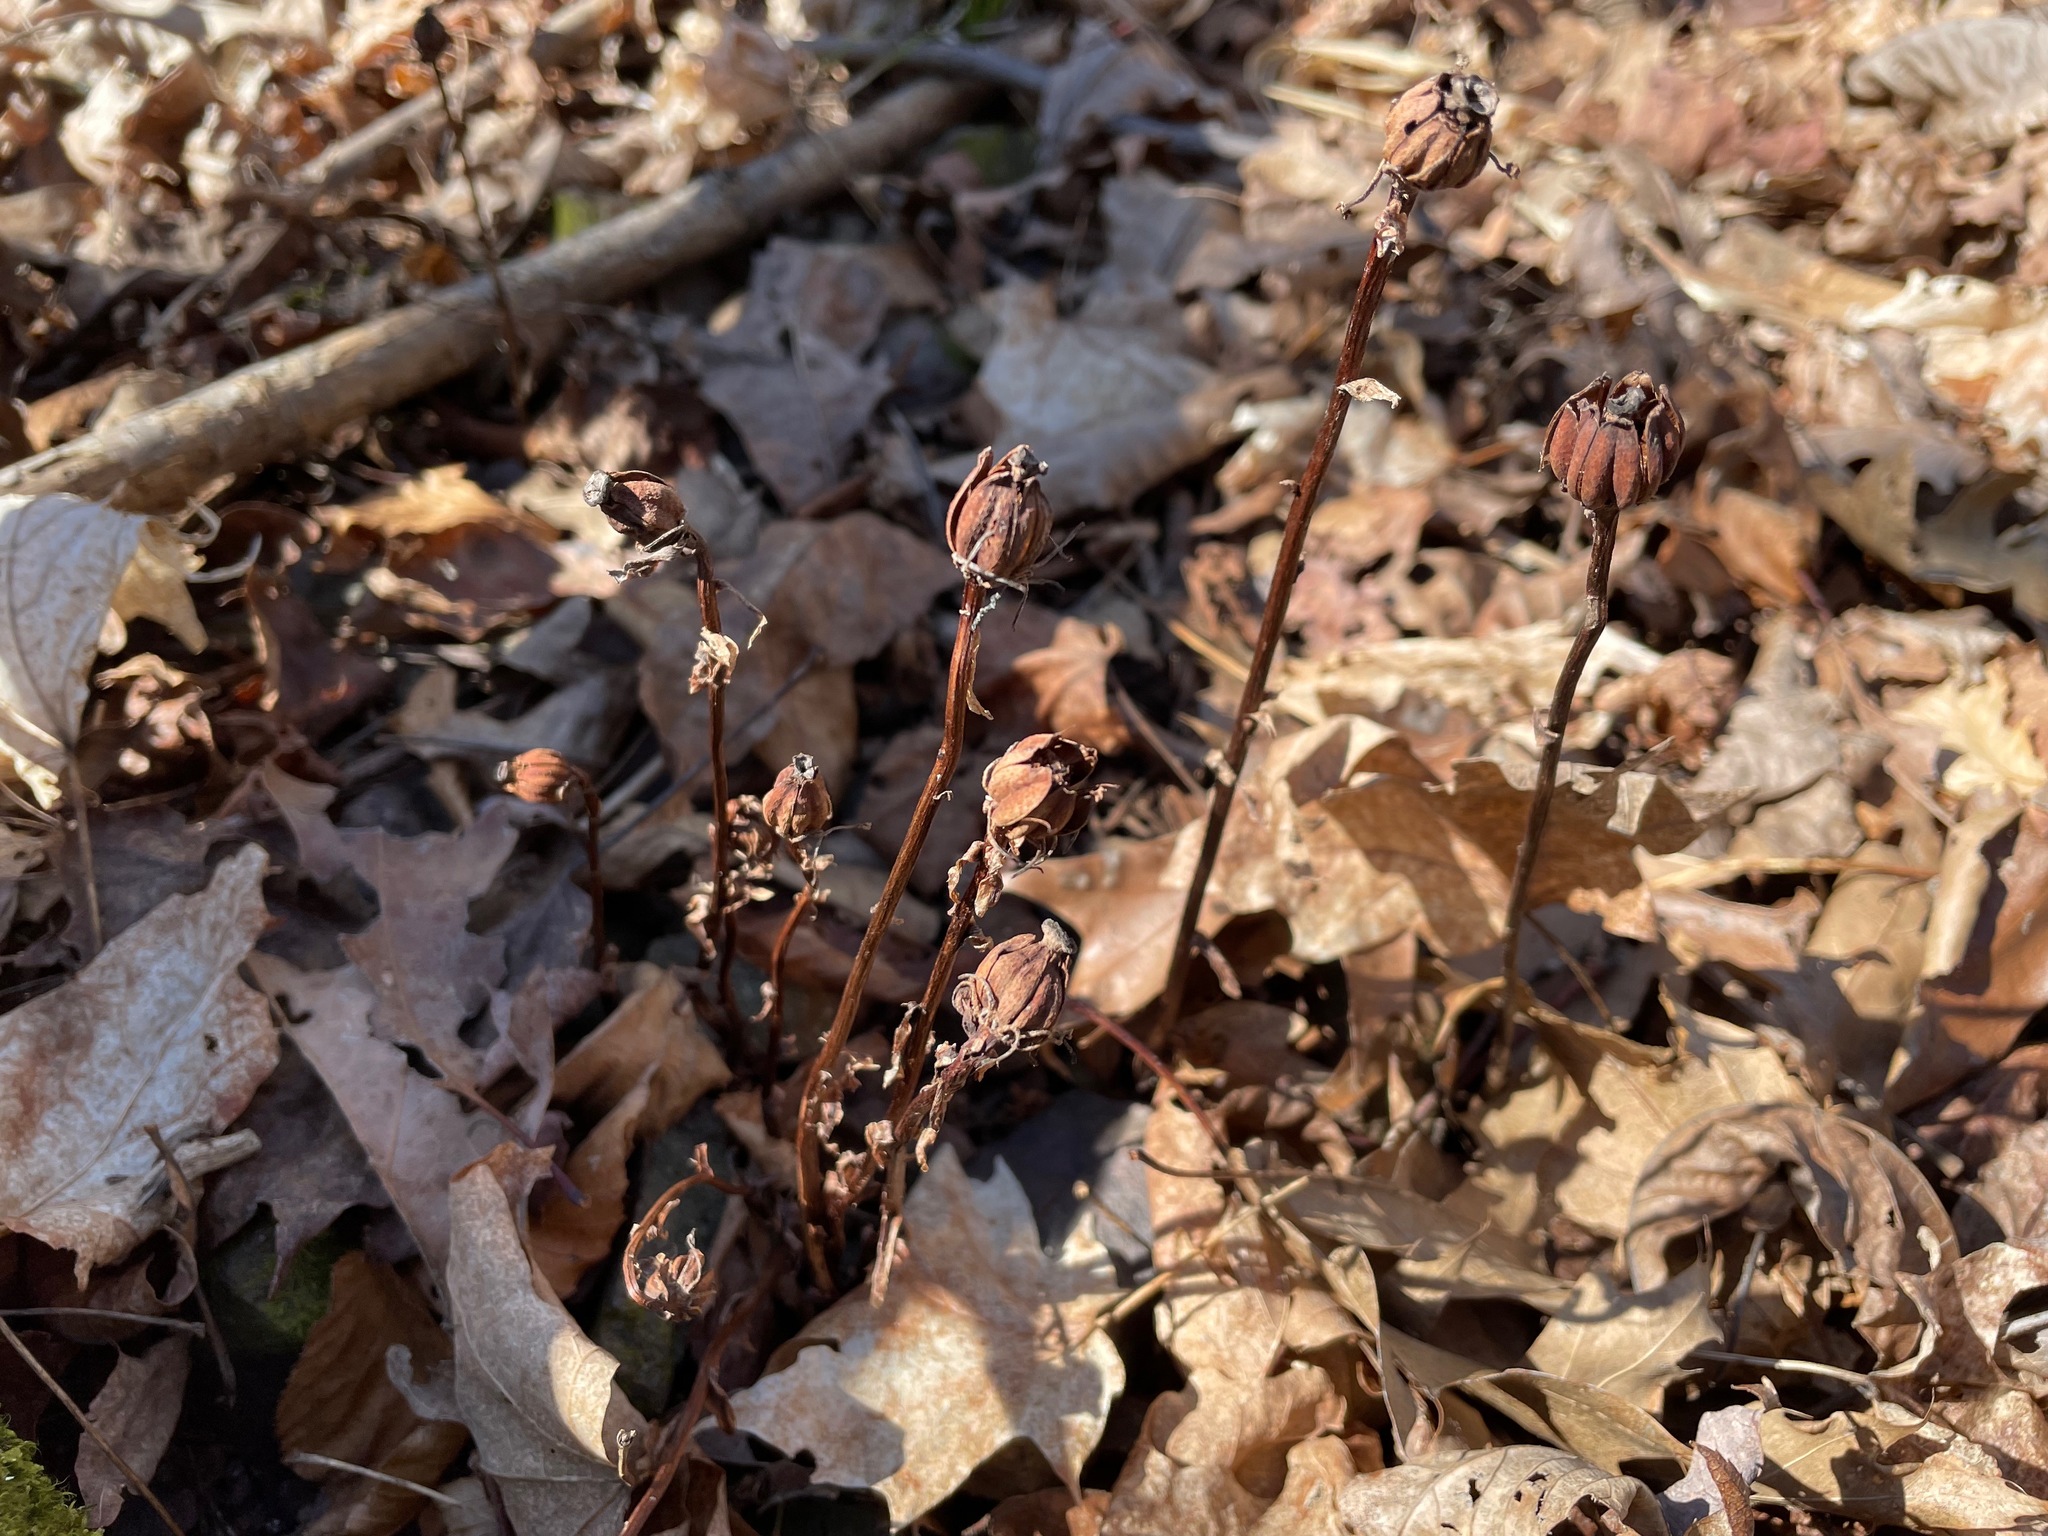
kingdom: Plantae
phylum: Tracheophyta
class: Magnoliopsida
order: Ericales
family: Ericaceae
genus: Monotropa
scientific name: Monotropa uniflora
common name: Convulsion root
